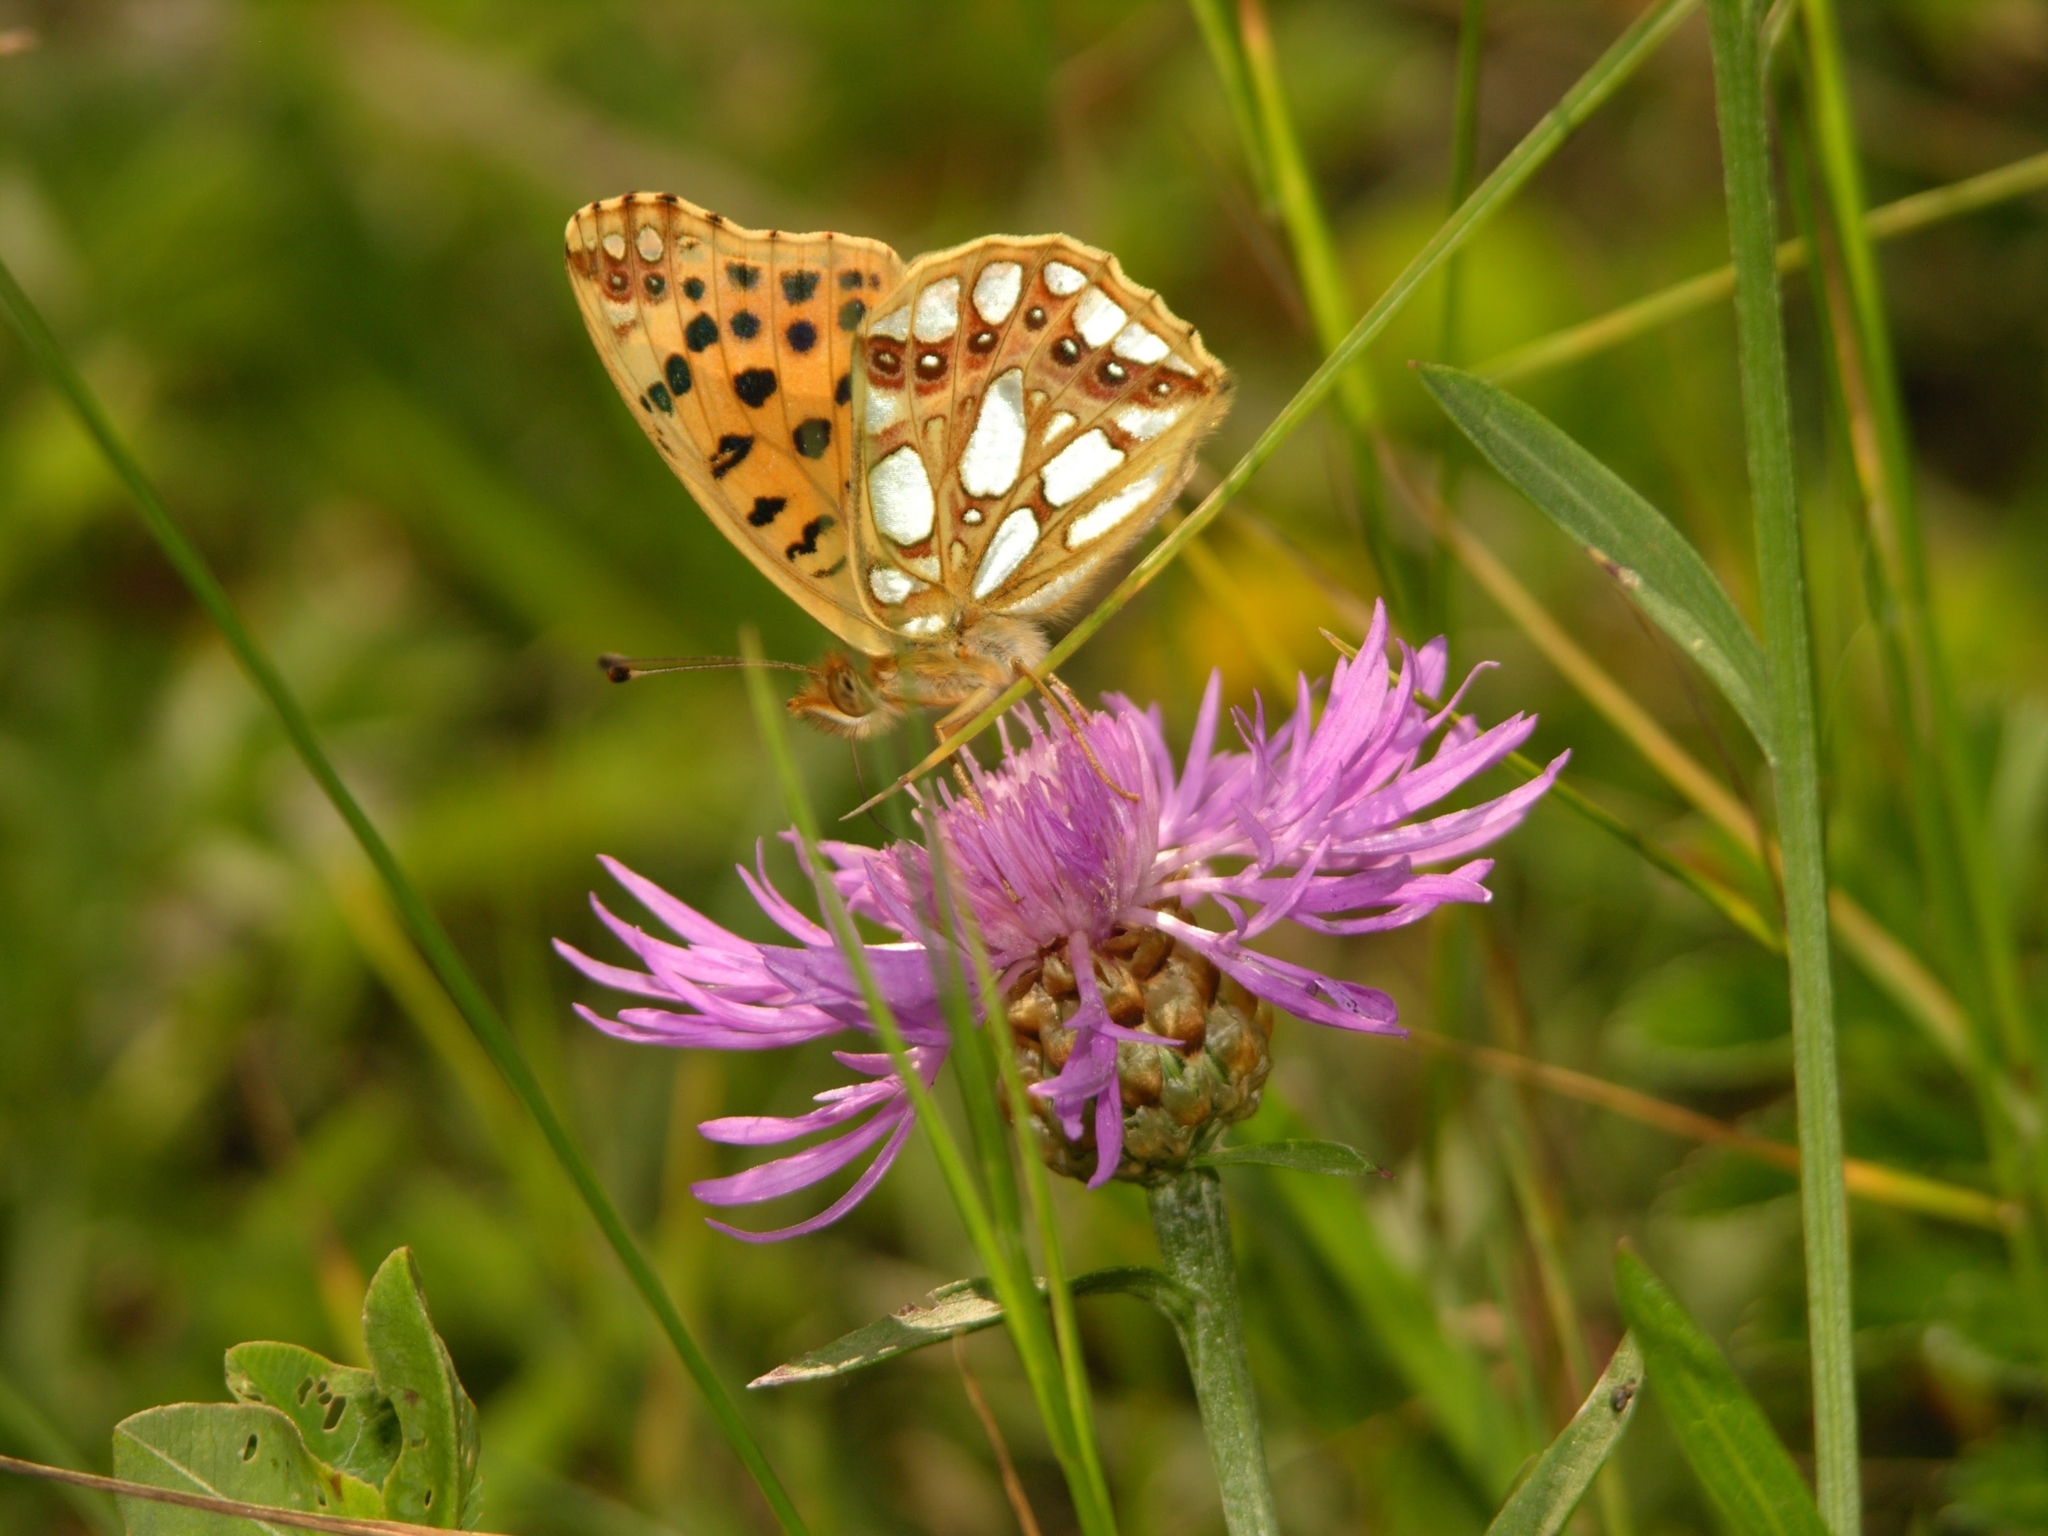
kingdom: Animalia
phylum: Arthropoda
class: Insecta
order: Lepidoptera
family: Nymphalidae
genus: Issoria
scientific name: Issoria lathonia
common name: Queen of spain fritillary
